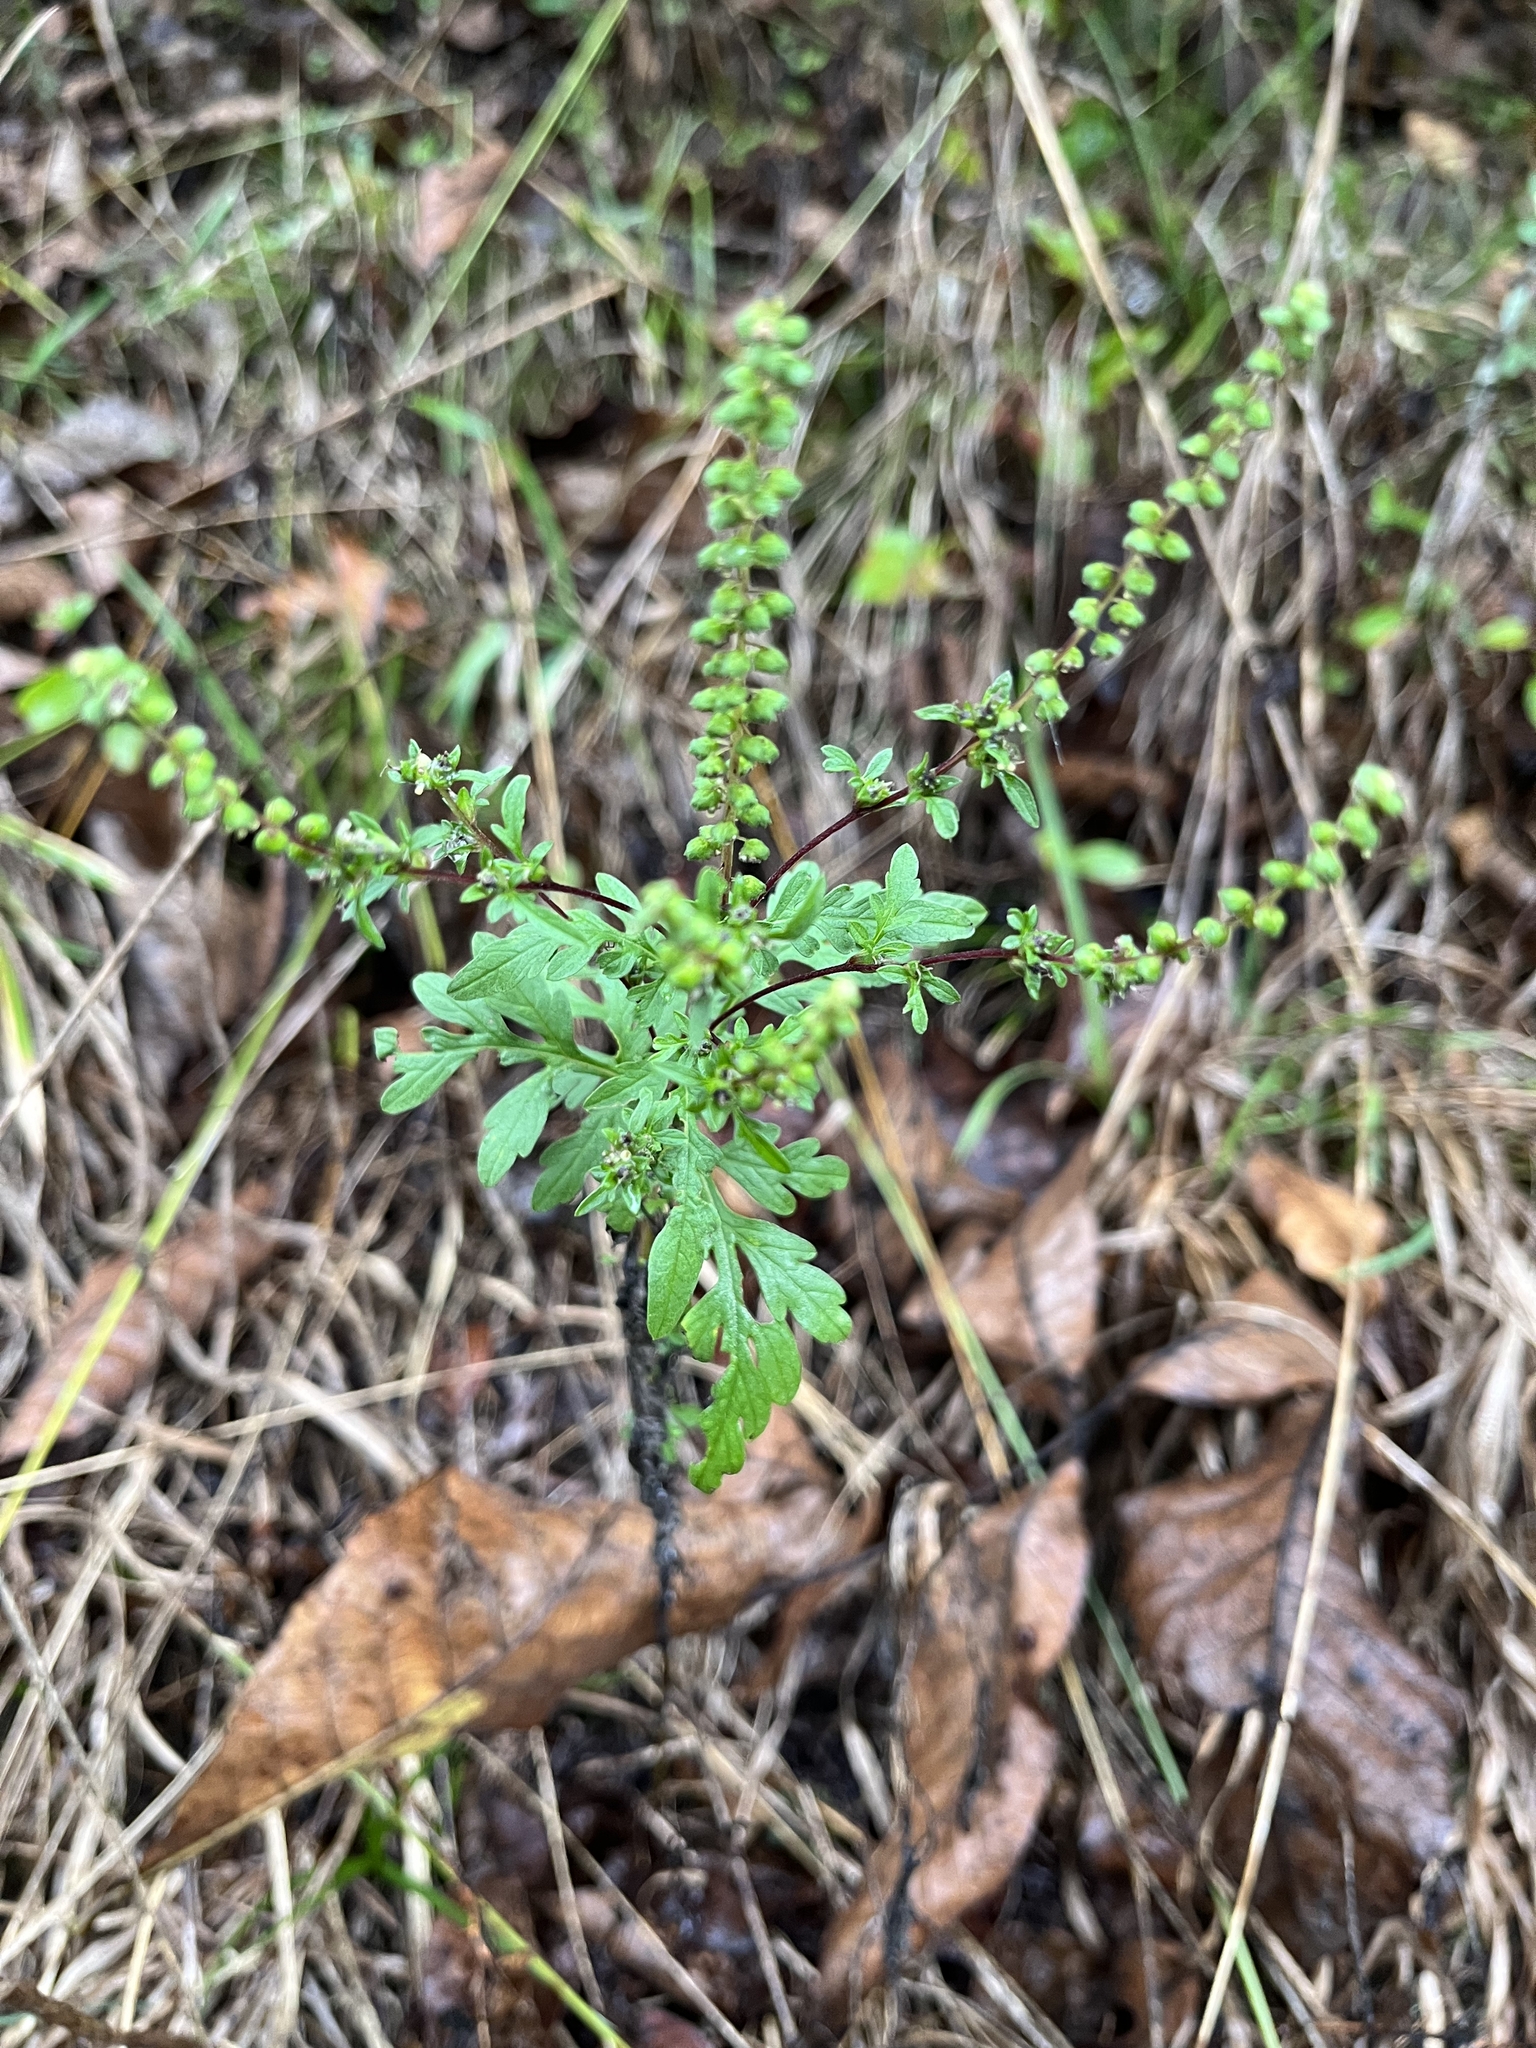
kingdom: Plantae
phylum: Tracheophyta
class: Magnoliopsida
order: Asterales
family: Asteraceae
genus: Ambrosia
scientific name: Ambrosia artemisiifolia
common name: Annual ragweed
